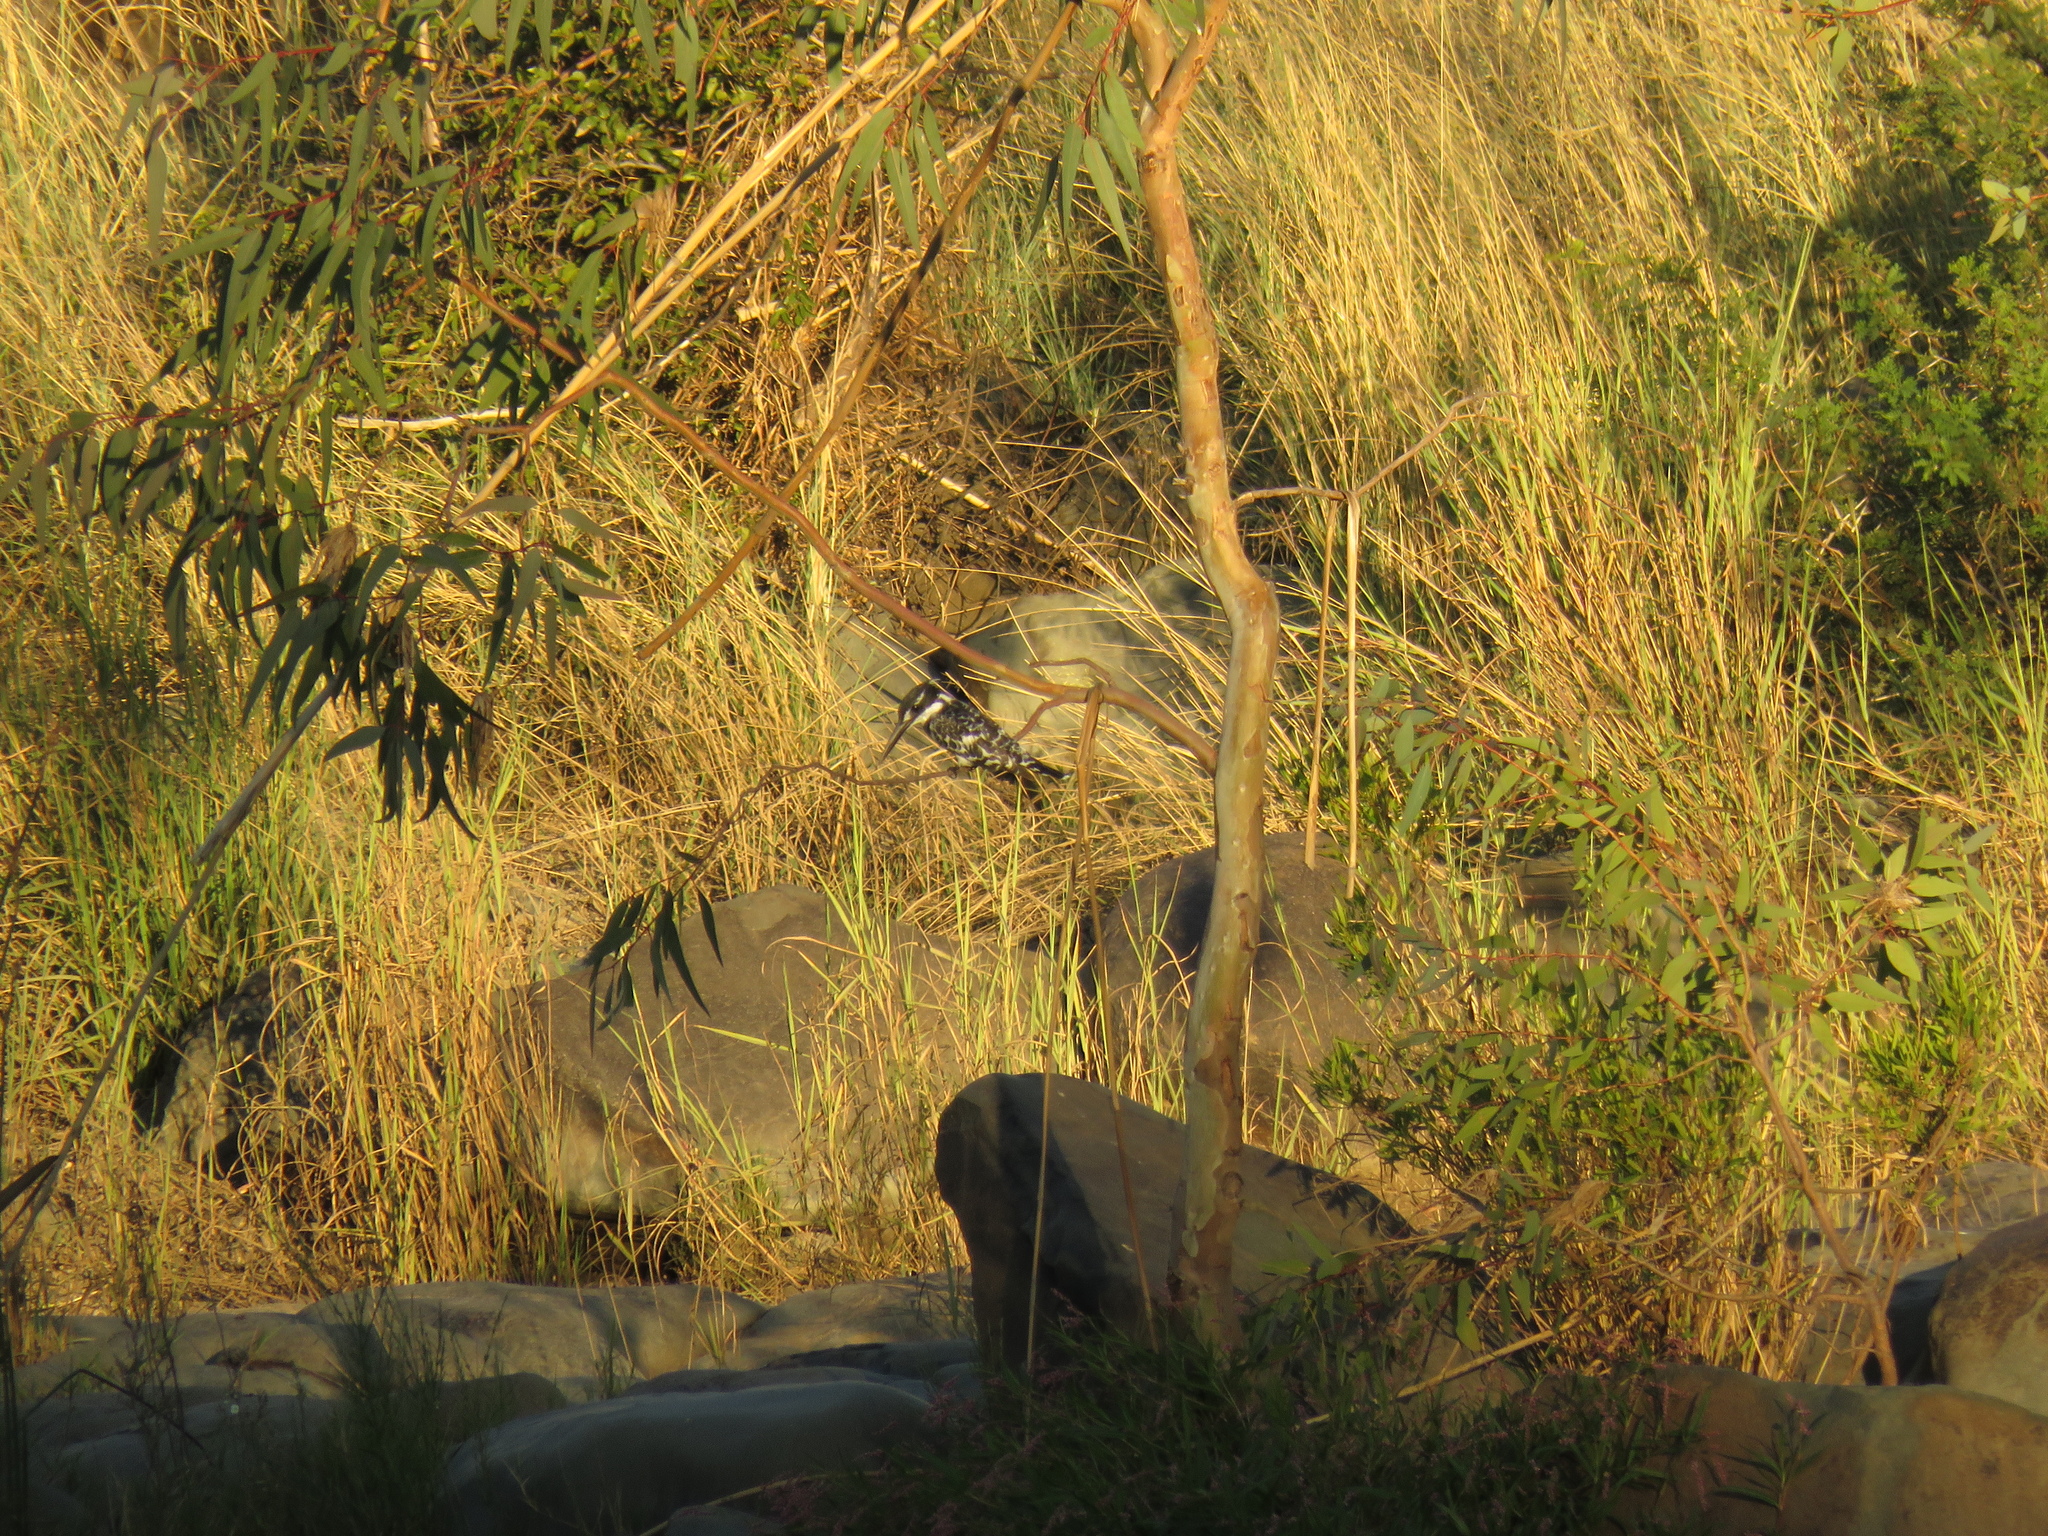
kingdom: Animalia
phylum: Chordata
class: Aves
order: Coraciiformes
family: Alcedinidae
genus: Ceryle
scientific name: Ceryle rudis
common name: Pied kingfisher
